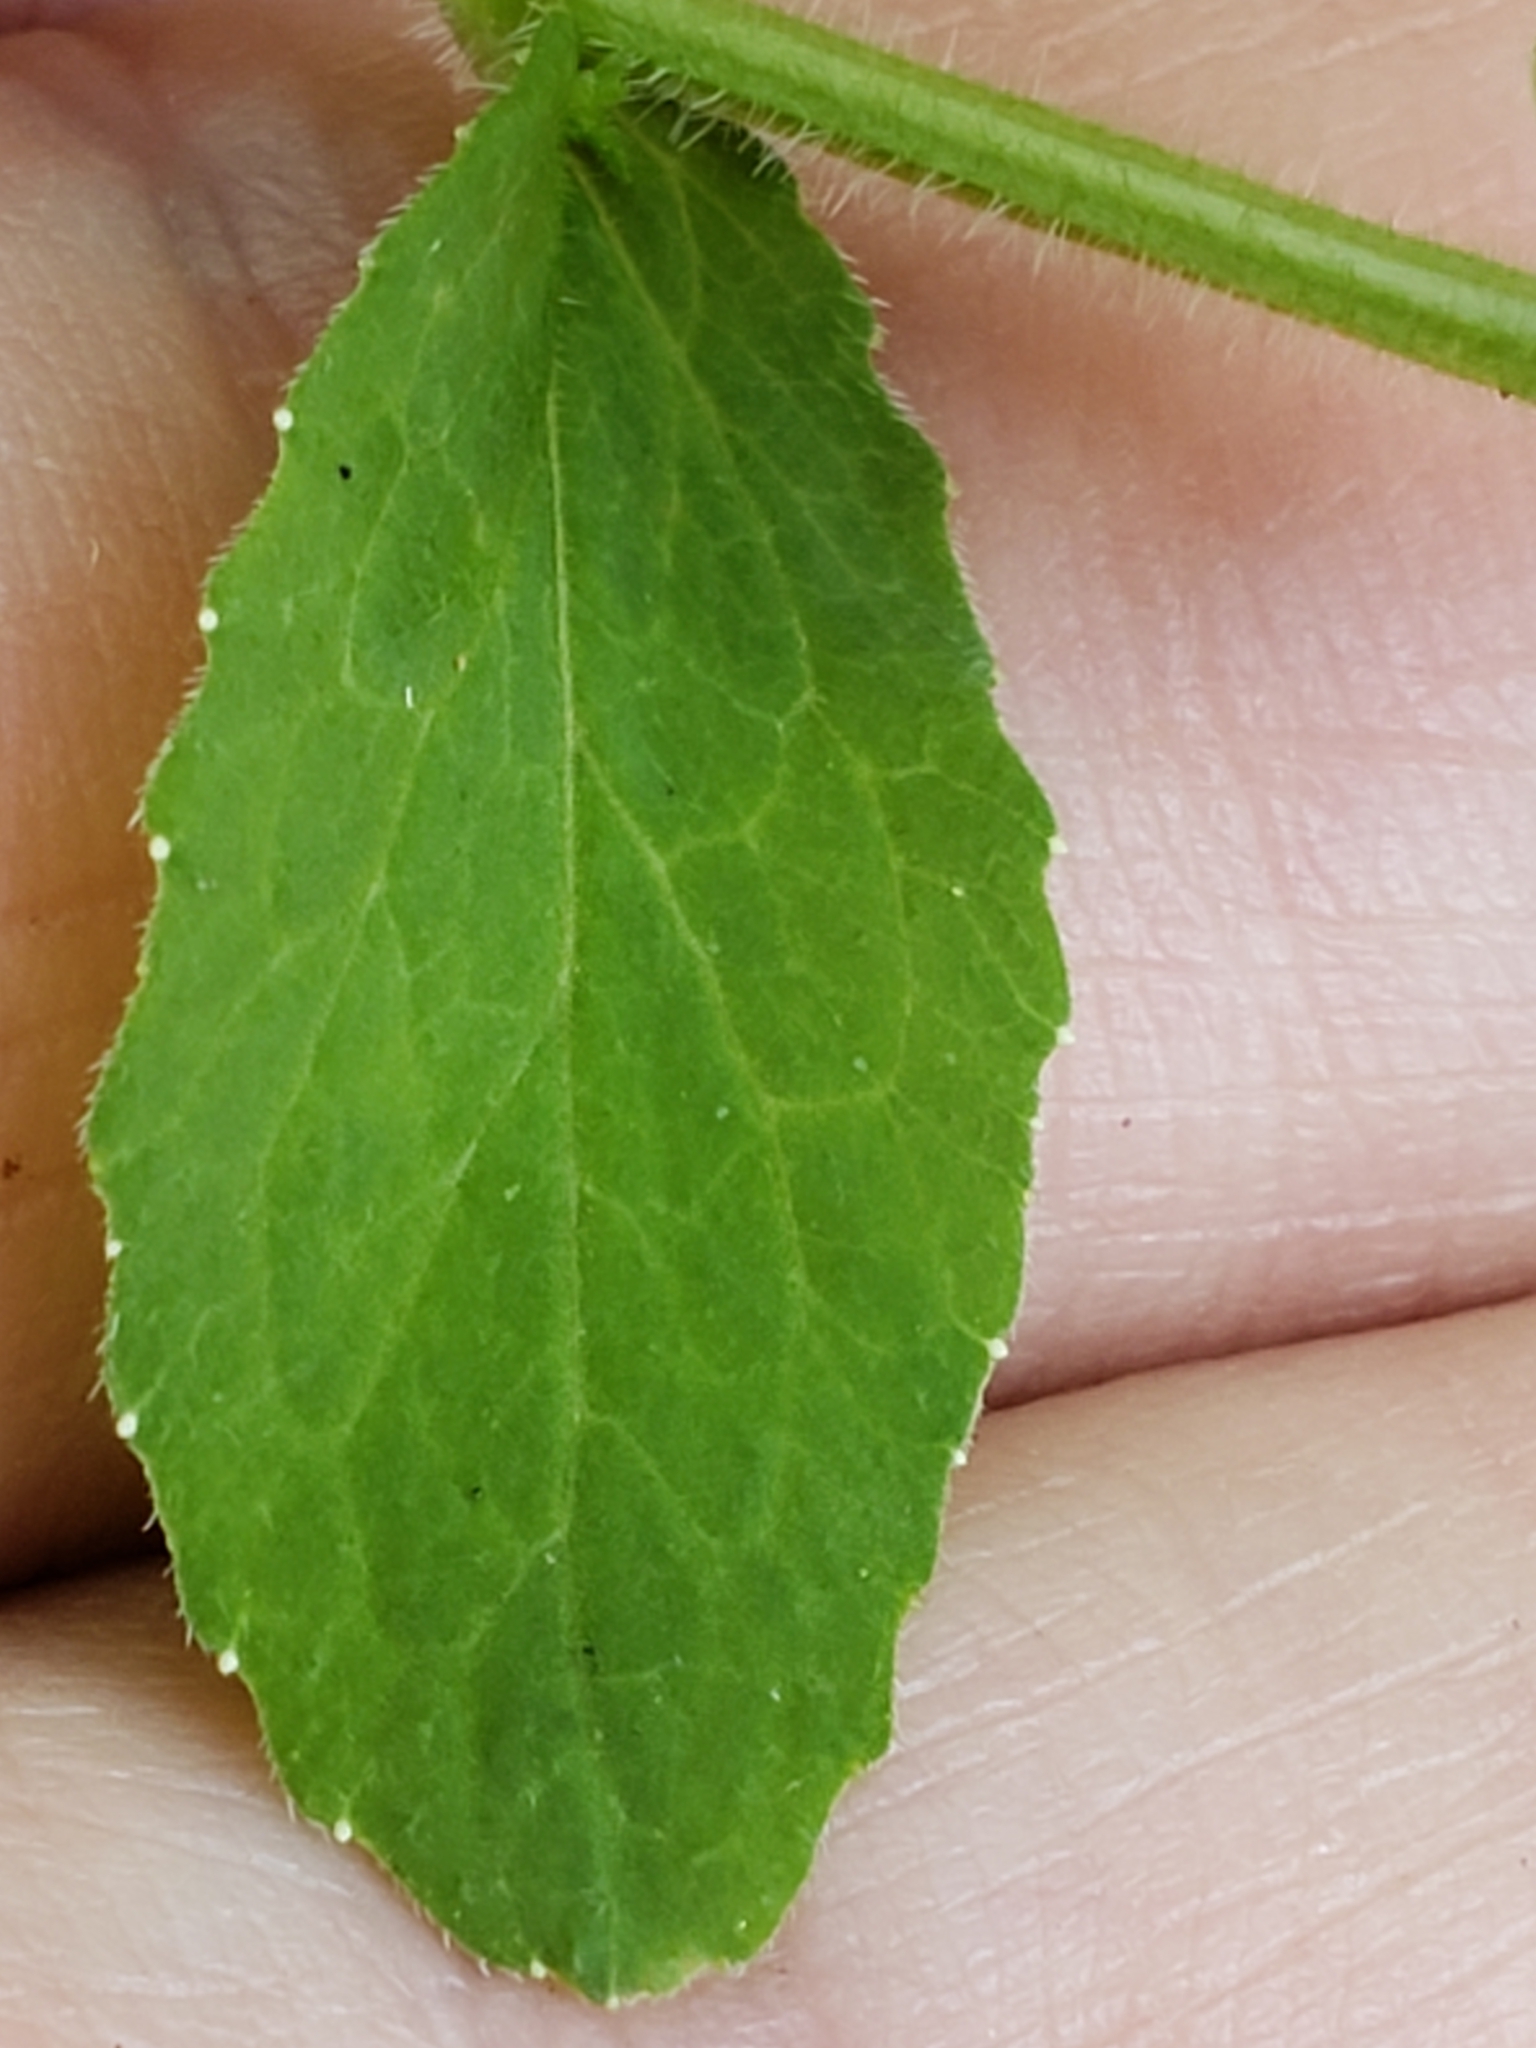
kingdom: Plantae
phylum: Tracheophyta
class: Magnoliopsida
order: Asterales
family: Campanulaceae
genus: Lobelia
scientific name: Lobelia inflata
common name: Indian tobacco
